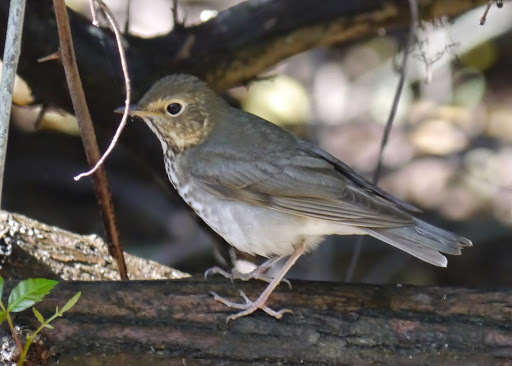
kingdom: Animalia
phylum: Chordata
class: Aves
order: Passeriformes
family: Turdidae
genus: Catharus
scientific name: Catharus ustulatus
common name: Swainson's thrush
